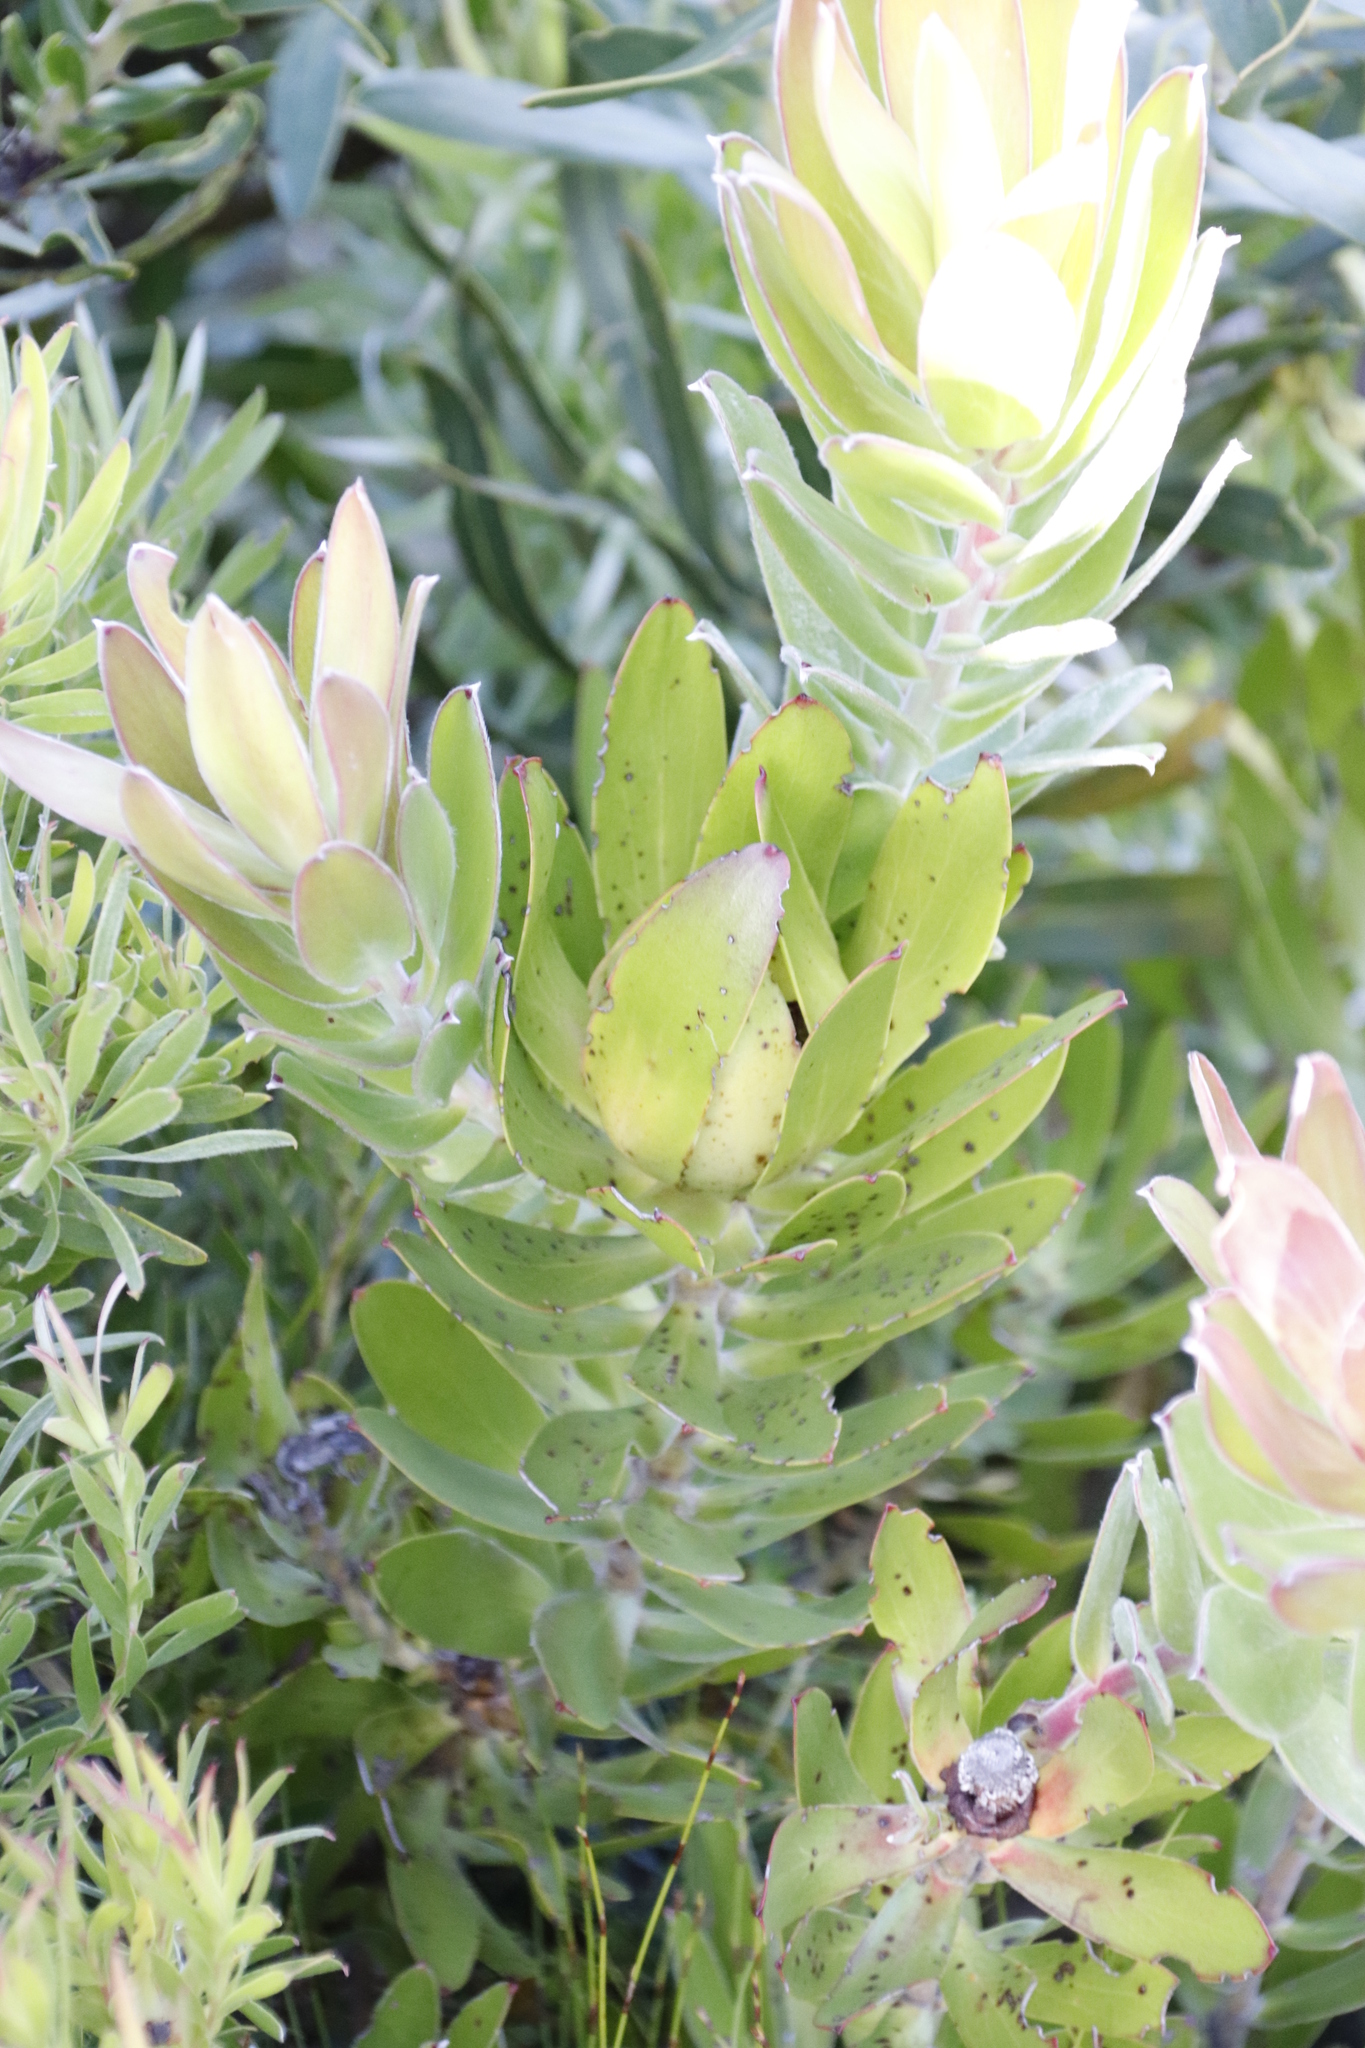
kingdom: Plantae
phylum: Tracheophyta
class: Magnoliopsida
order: Proteales
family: Proteaceae
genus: Leucadendron
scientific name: Leucadendron laureolum
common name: Golden sunshinebush
